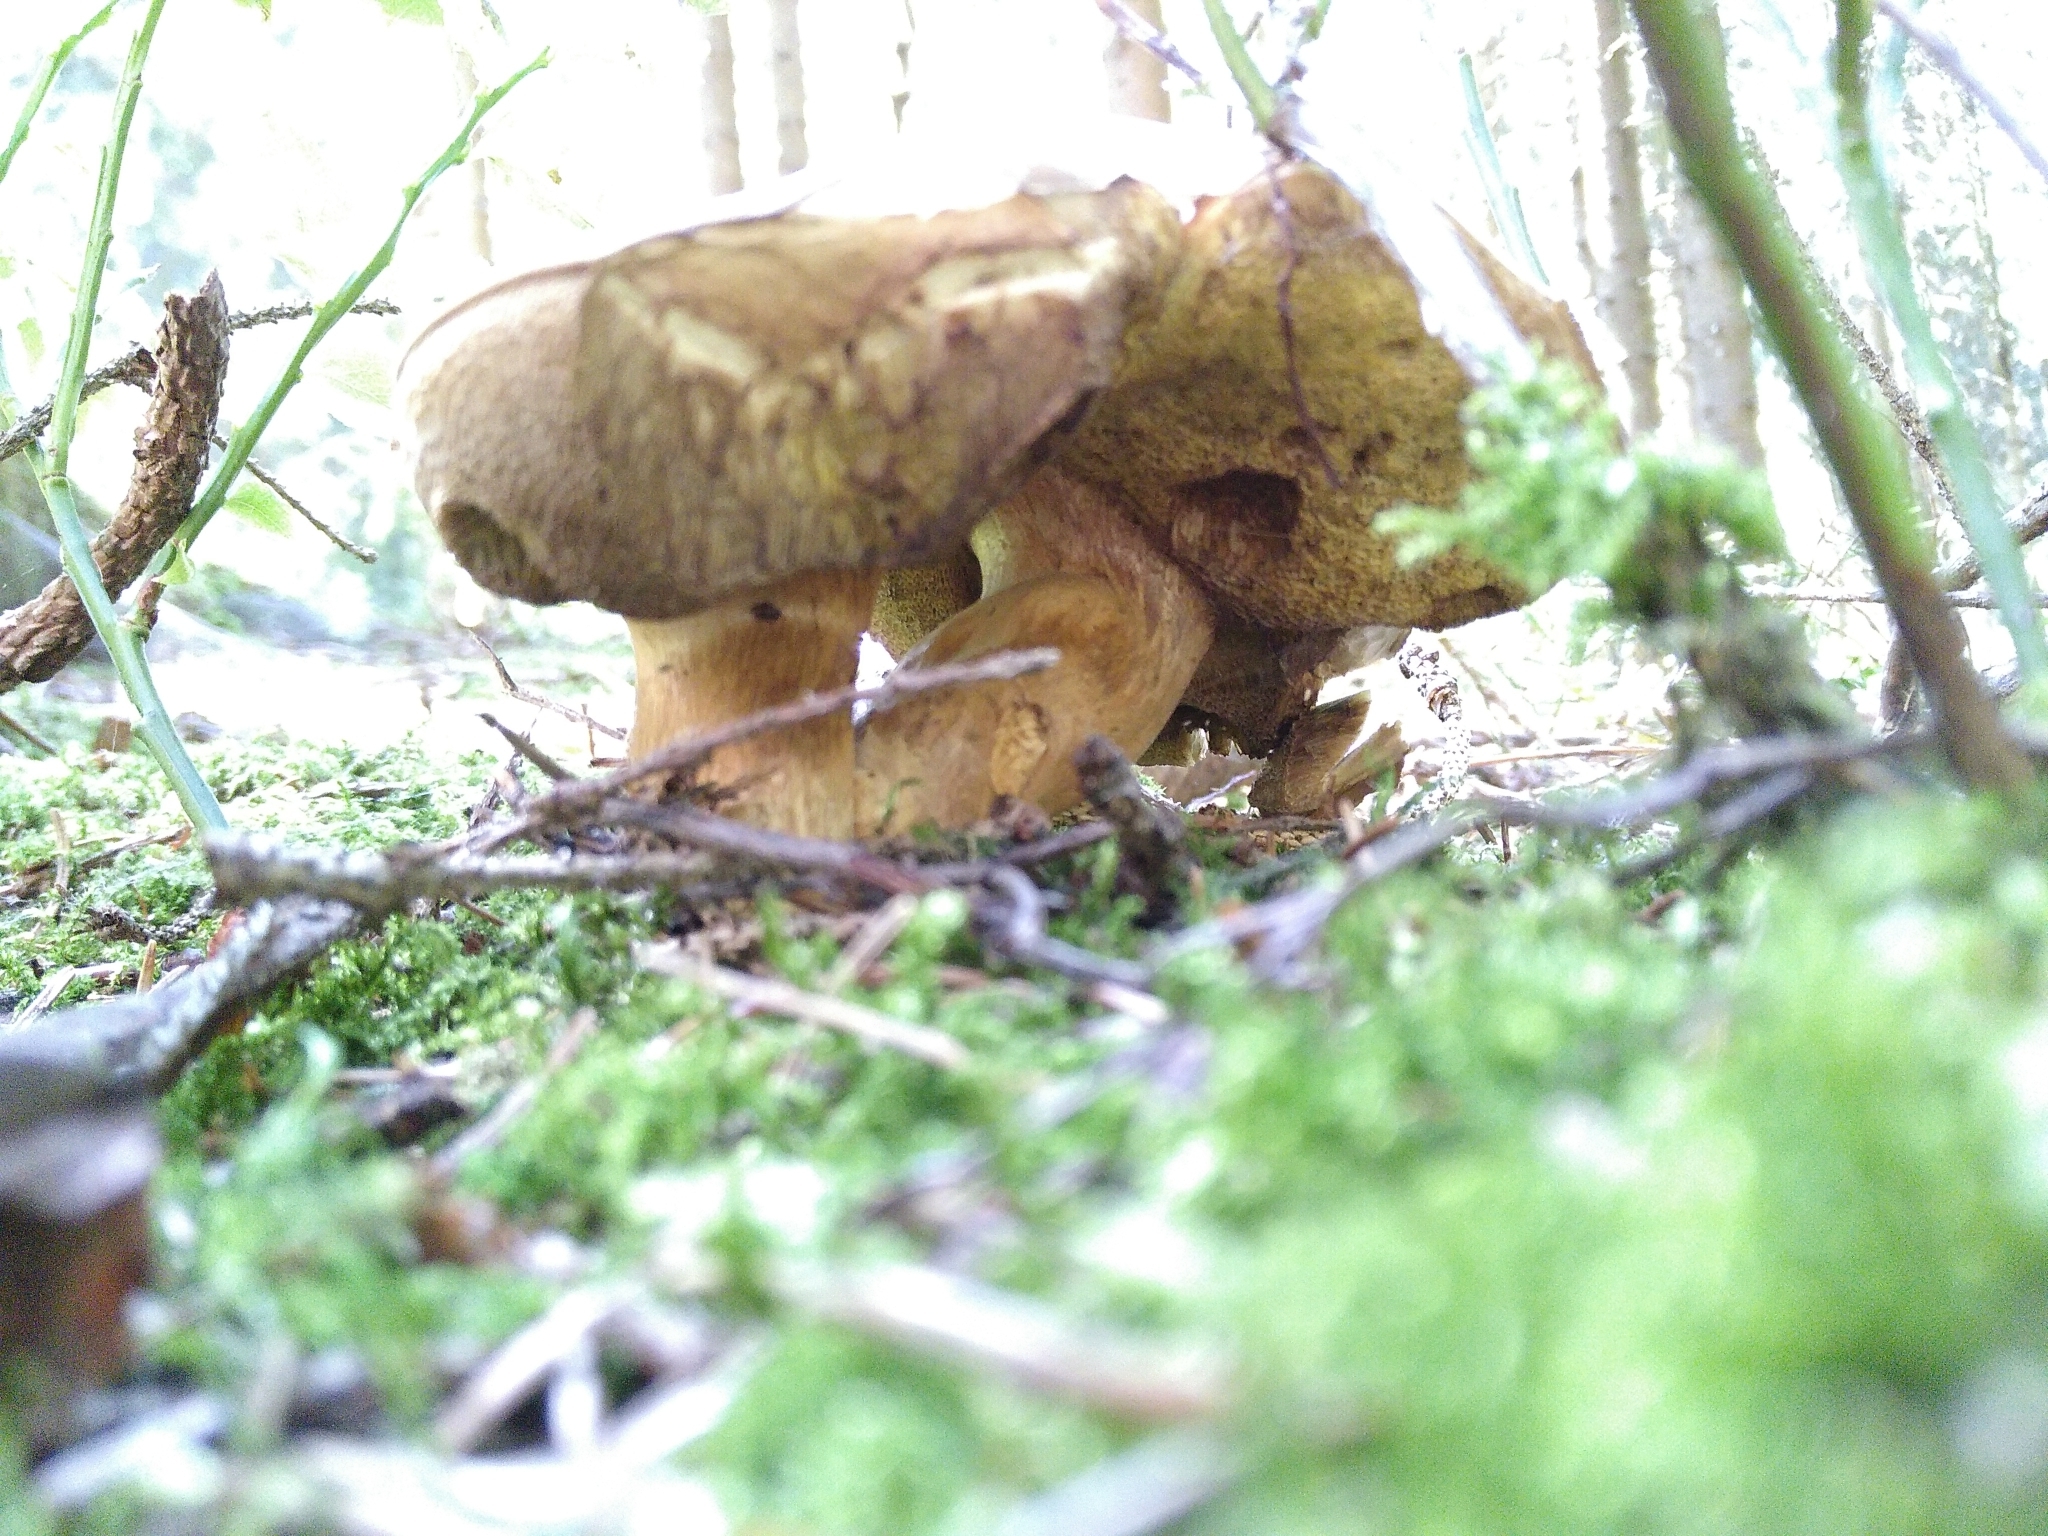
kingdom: Fungi
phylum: Basidiomycota
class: Agaricomycetes
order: Boletales
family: Boletaceae
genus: Imleria
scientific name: Imleria badia
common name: Bay bolete
